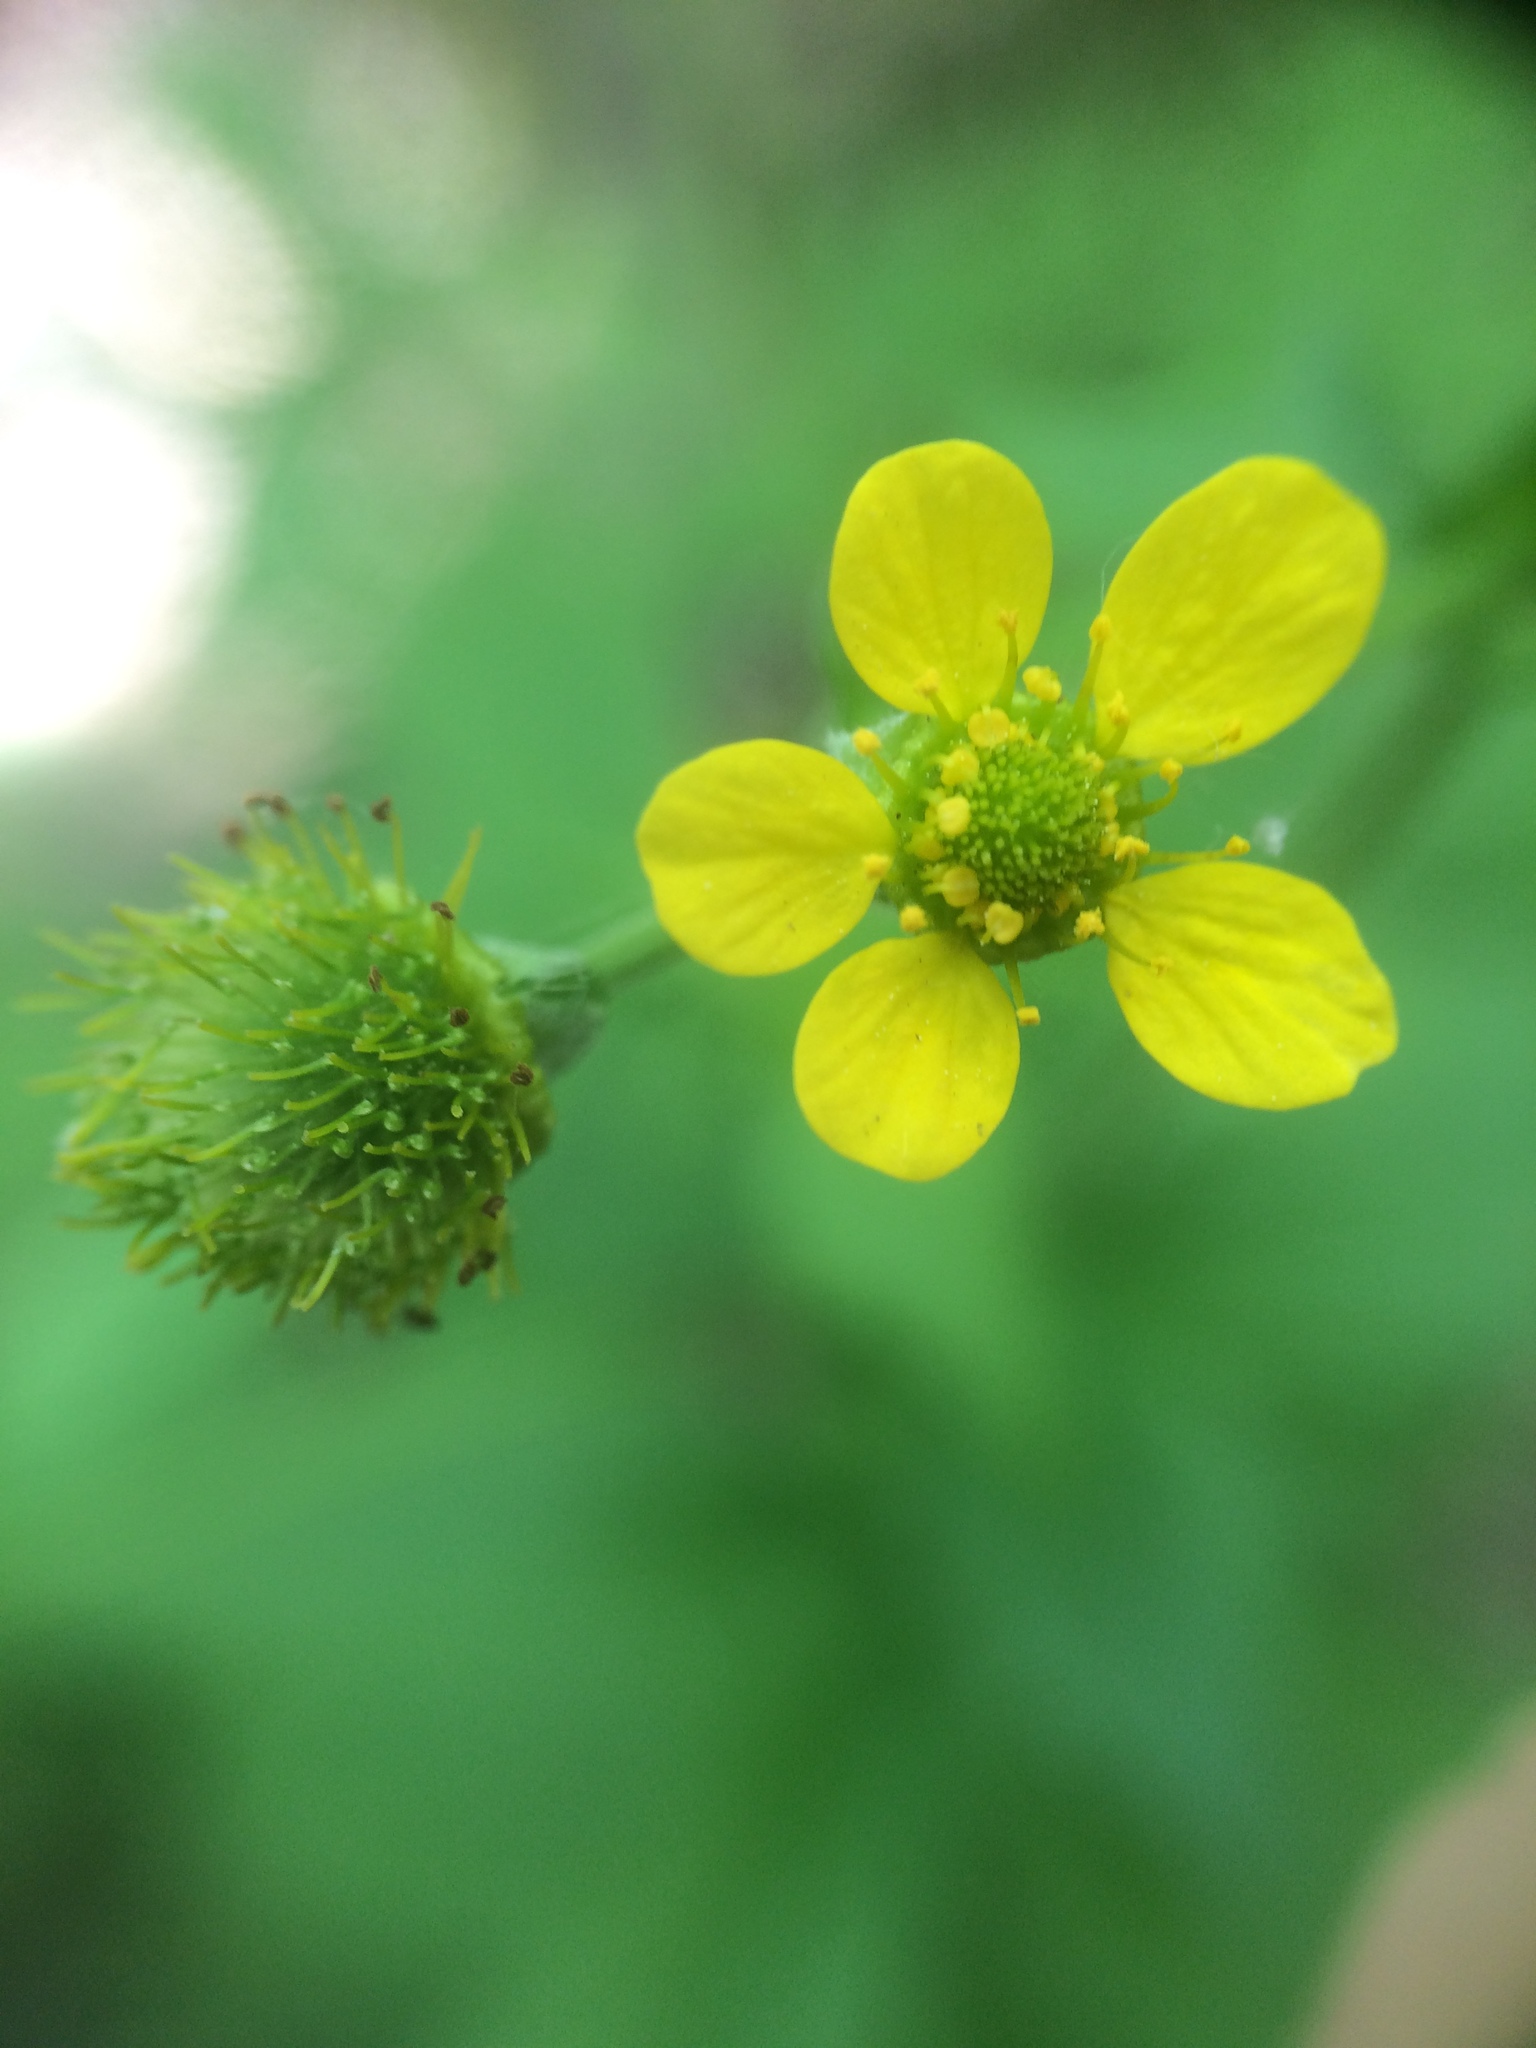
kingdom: Plantae
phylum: Tracheophyta
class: Magnoliopsida
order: Rosales
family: Rosaceae
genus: Geum
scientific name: Geum macrophyllum
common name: Large-leaved avens
